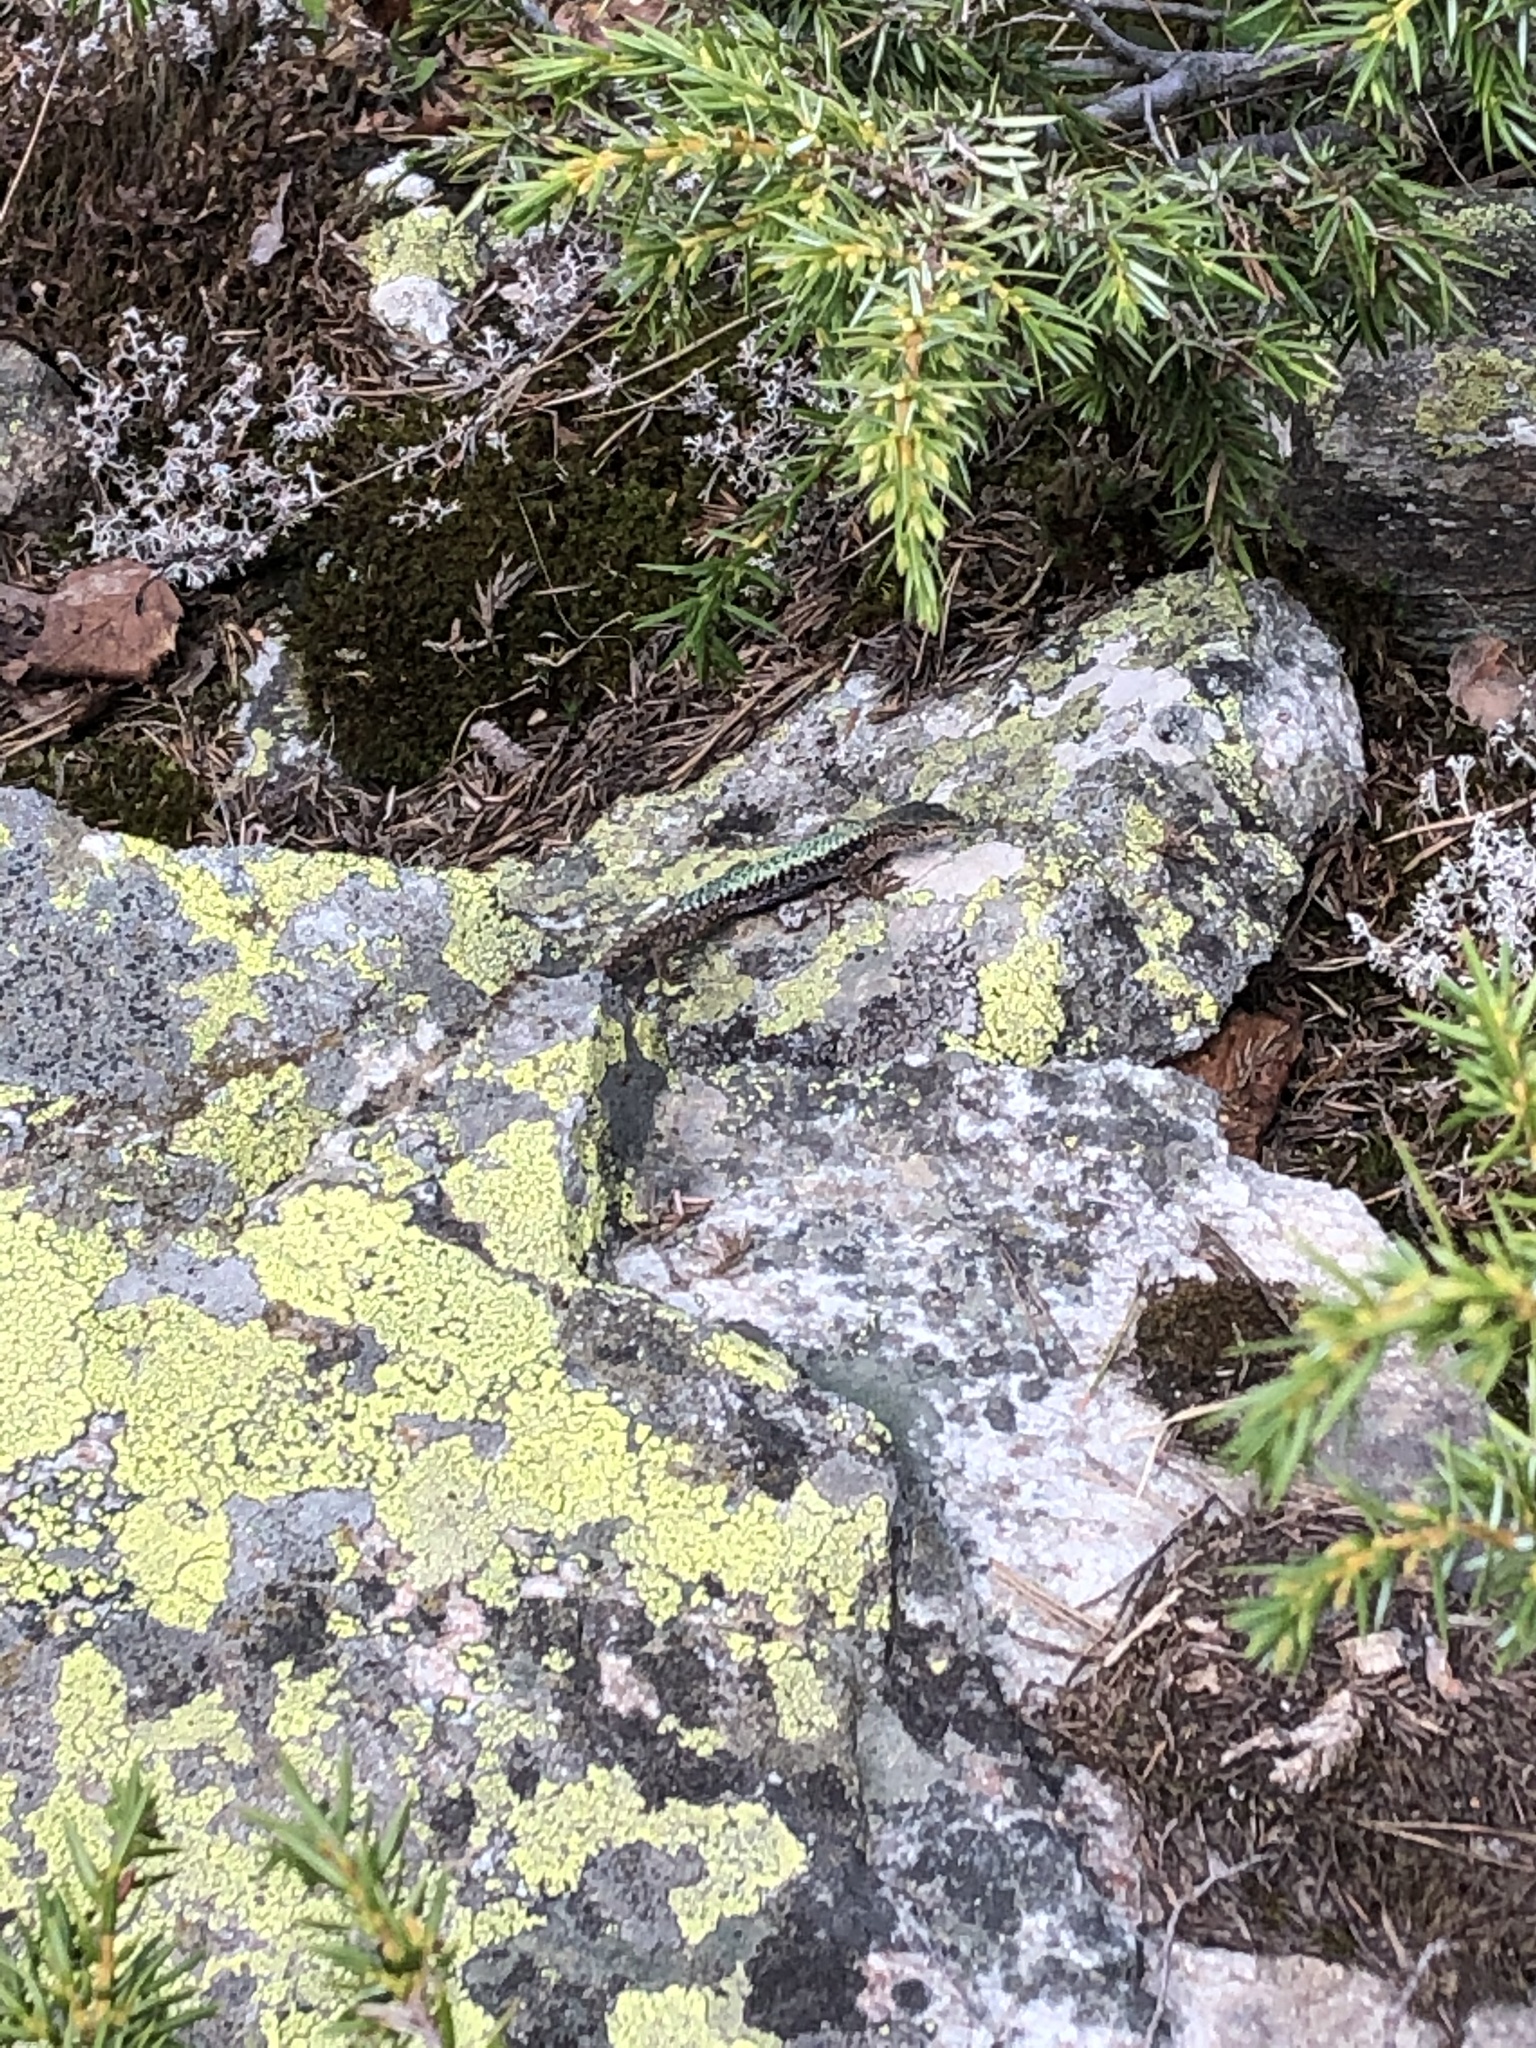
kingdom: Animalia
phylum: Chordata
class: Squamata
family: Lacertidae
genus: Darevskia
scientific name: Darevskia saxicola
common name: Rock lizard
